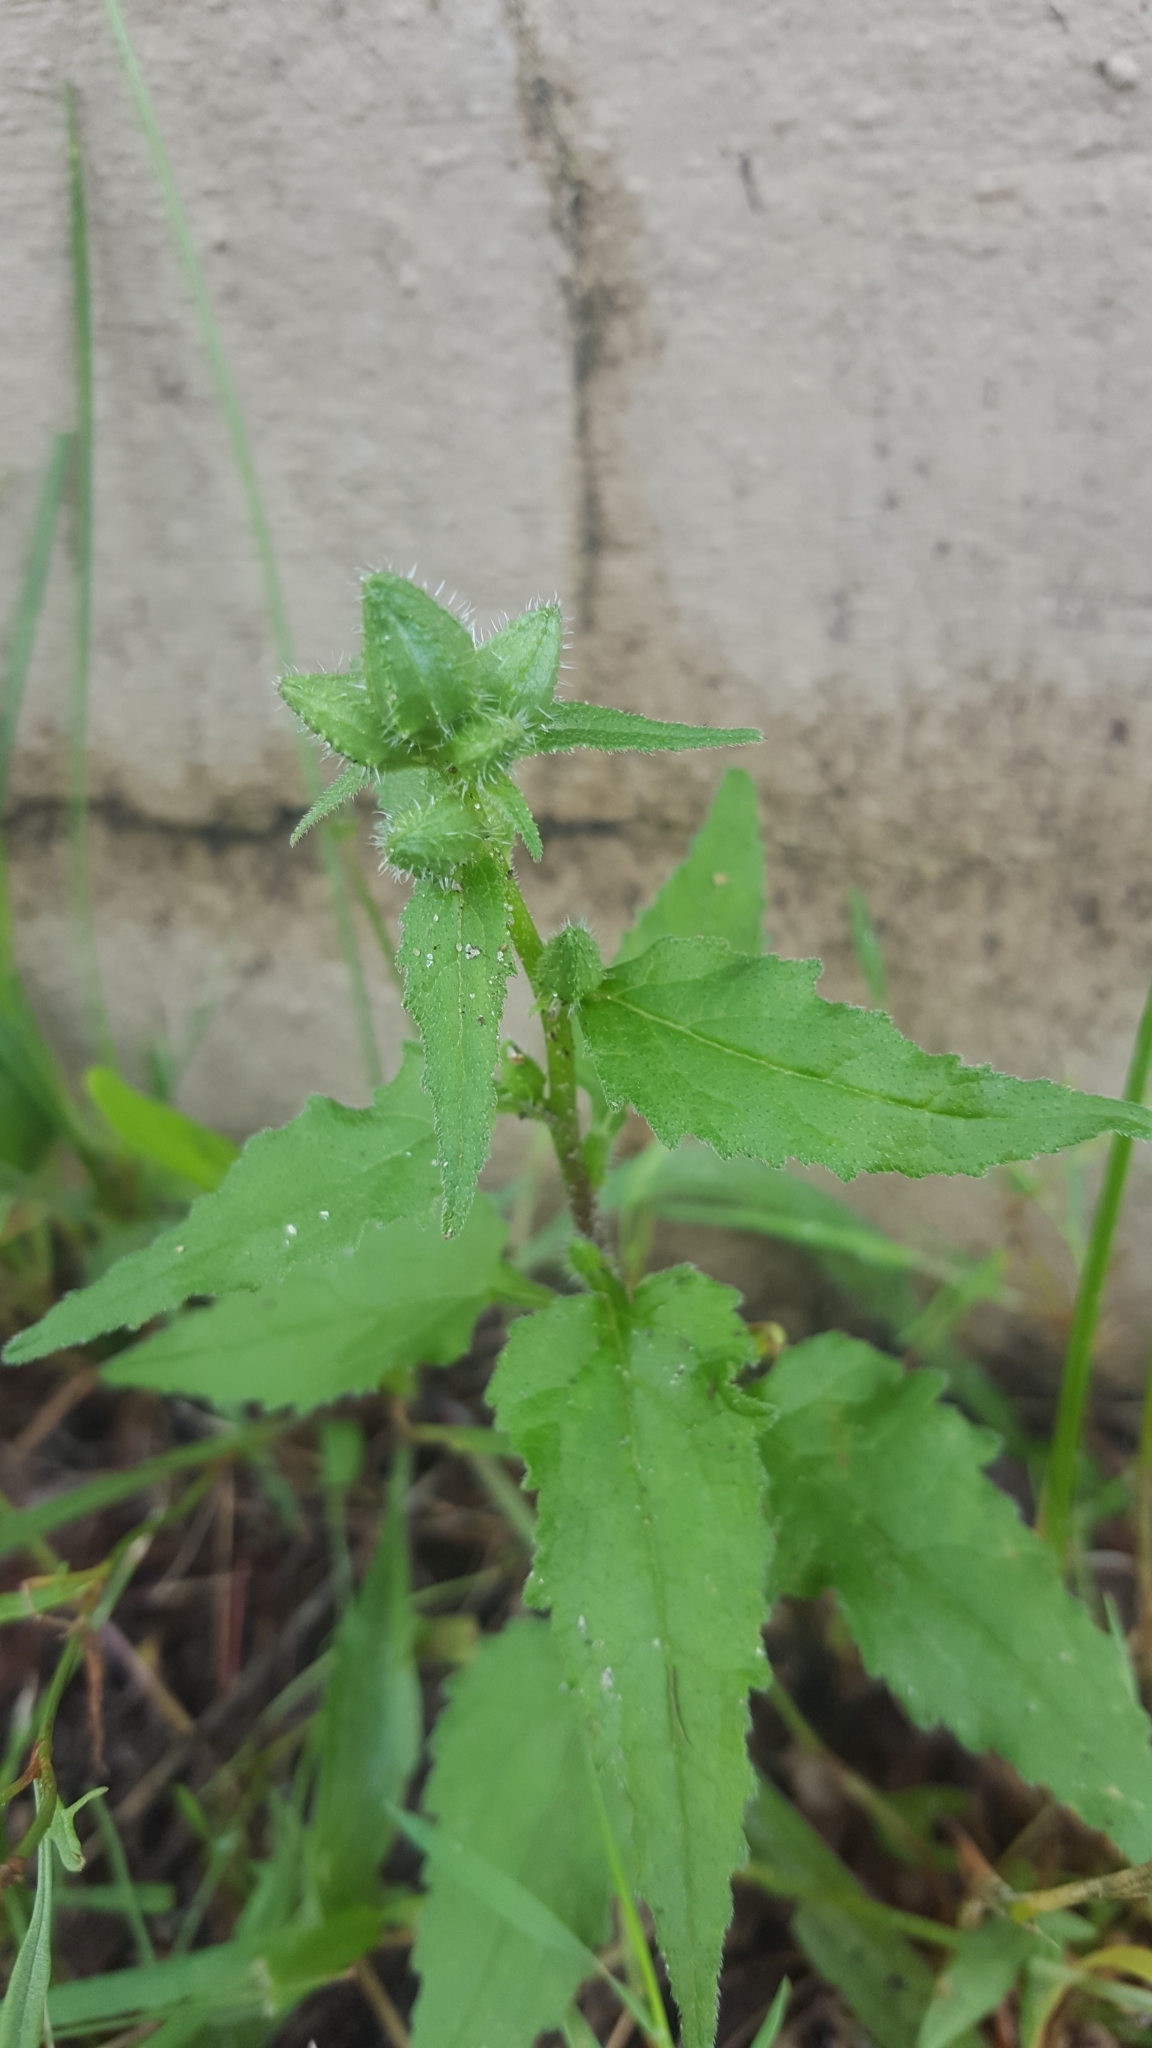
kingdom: Plantae
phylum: Tracheophyta
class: Magnoliopsida
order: Asterales
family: Campanulaceae
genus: Campanula
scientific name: Campanula trachelium
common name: Nettle-leaved bellflower
